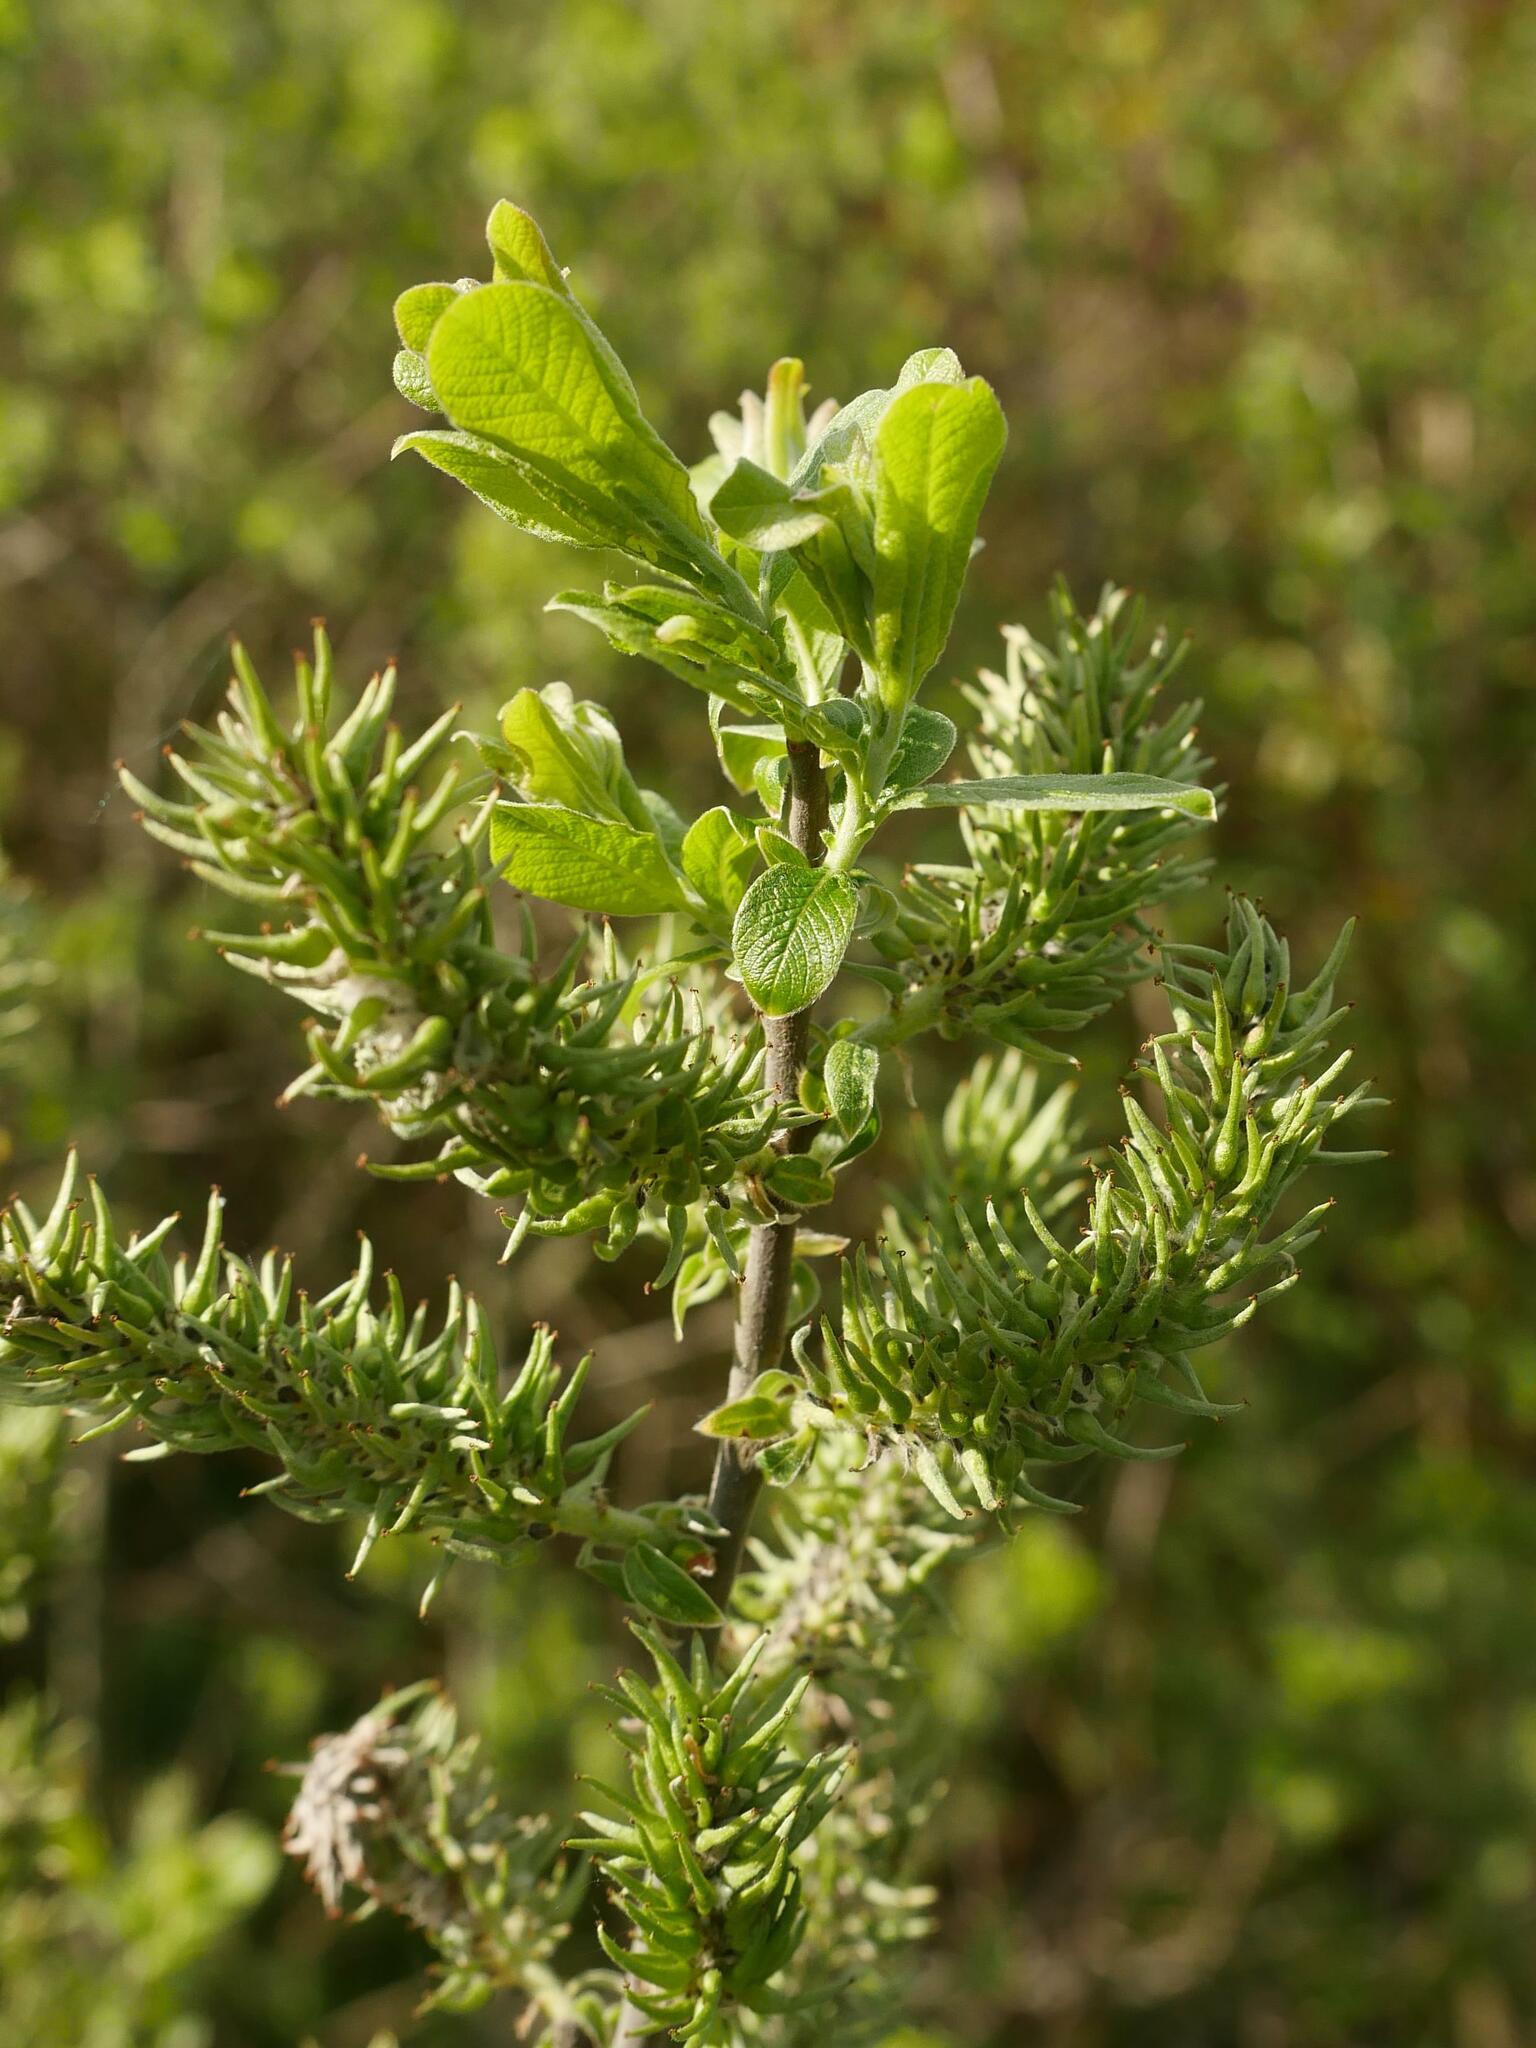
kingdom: Plantae
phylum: Tracheophyta
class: Magnoliopsida
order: Malpighiales
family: Salicaceae
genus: Salix
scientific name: Salix aurita
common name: Eared willow
